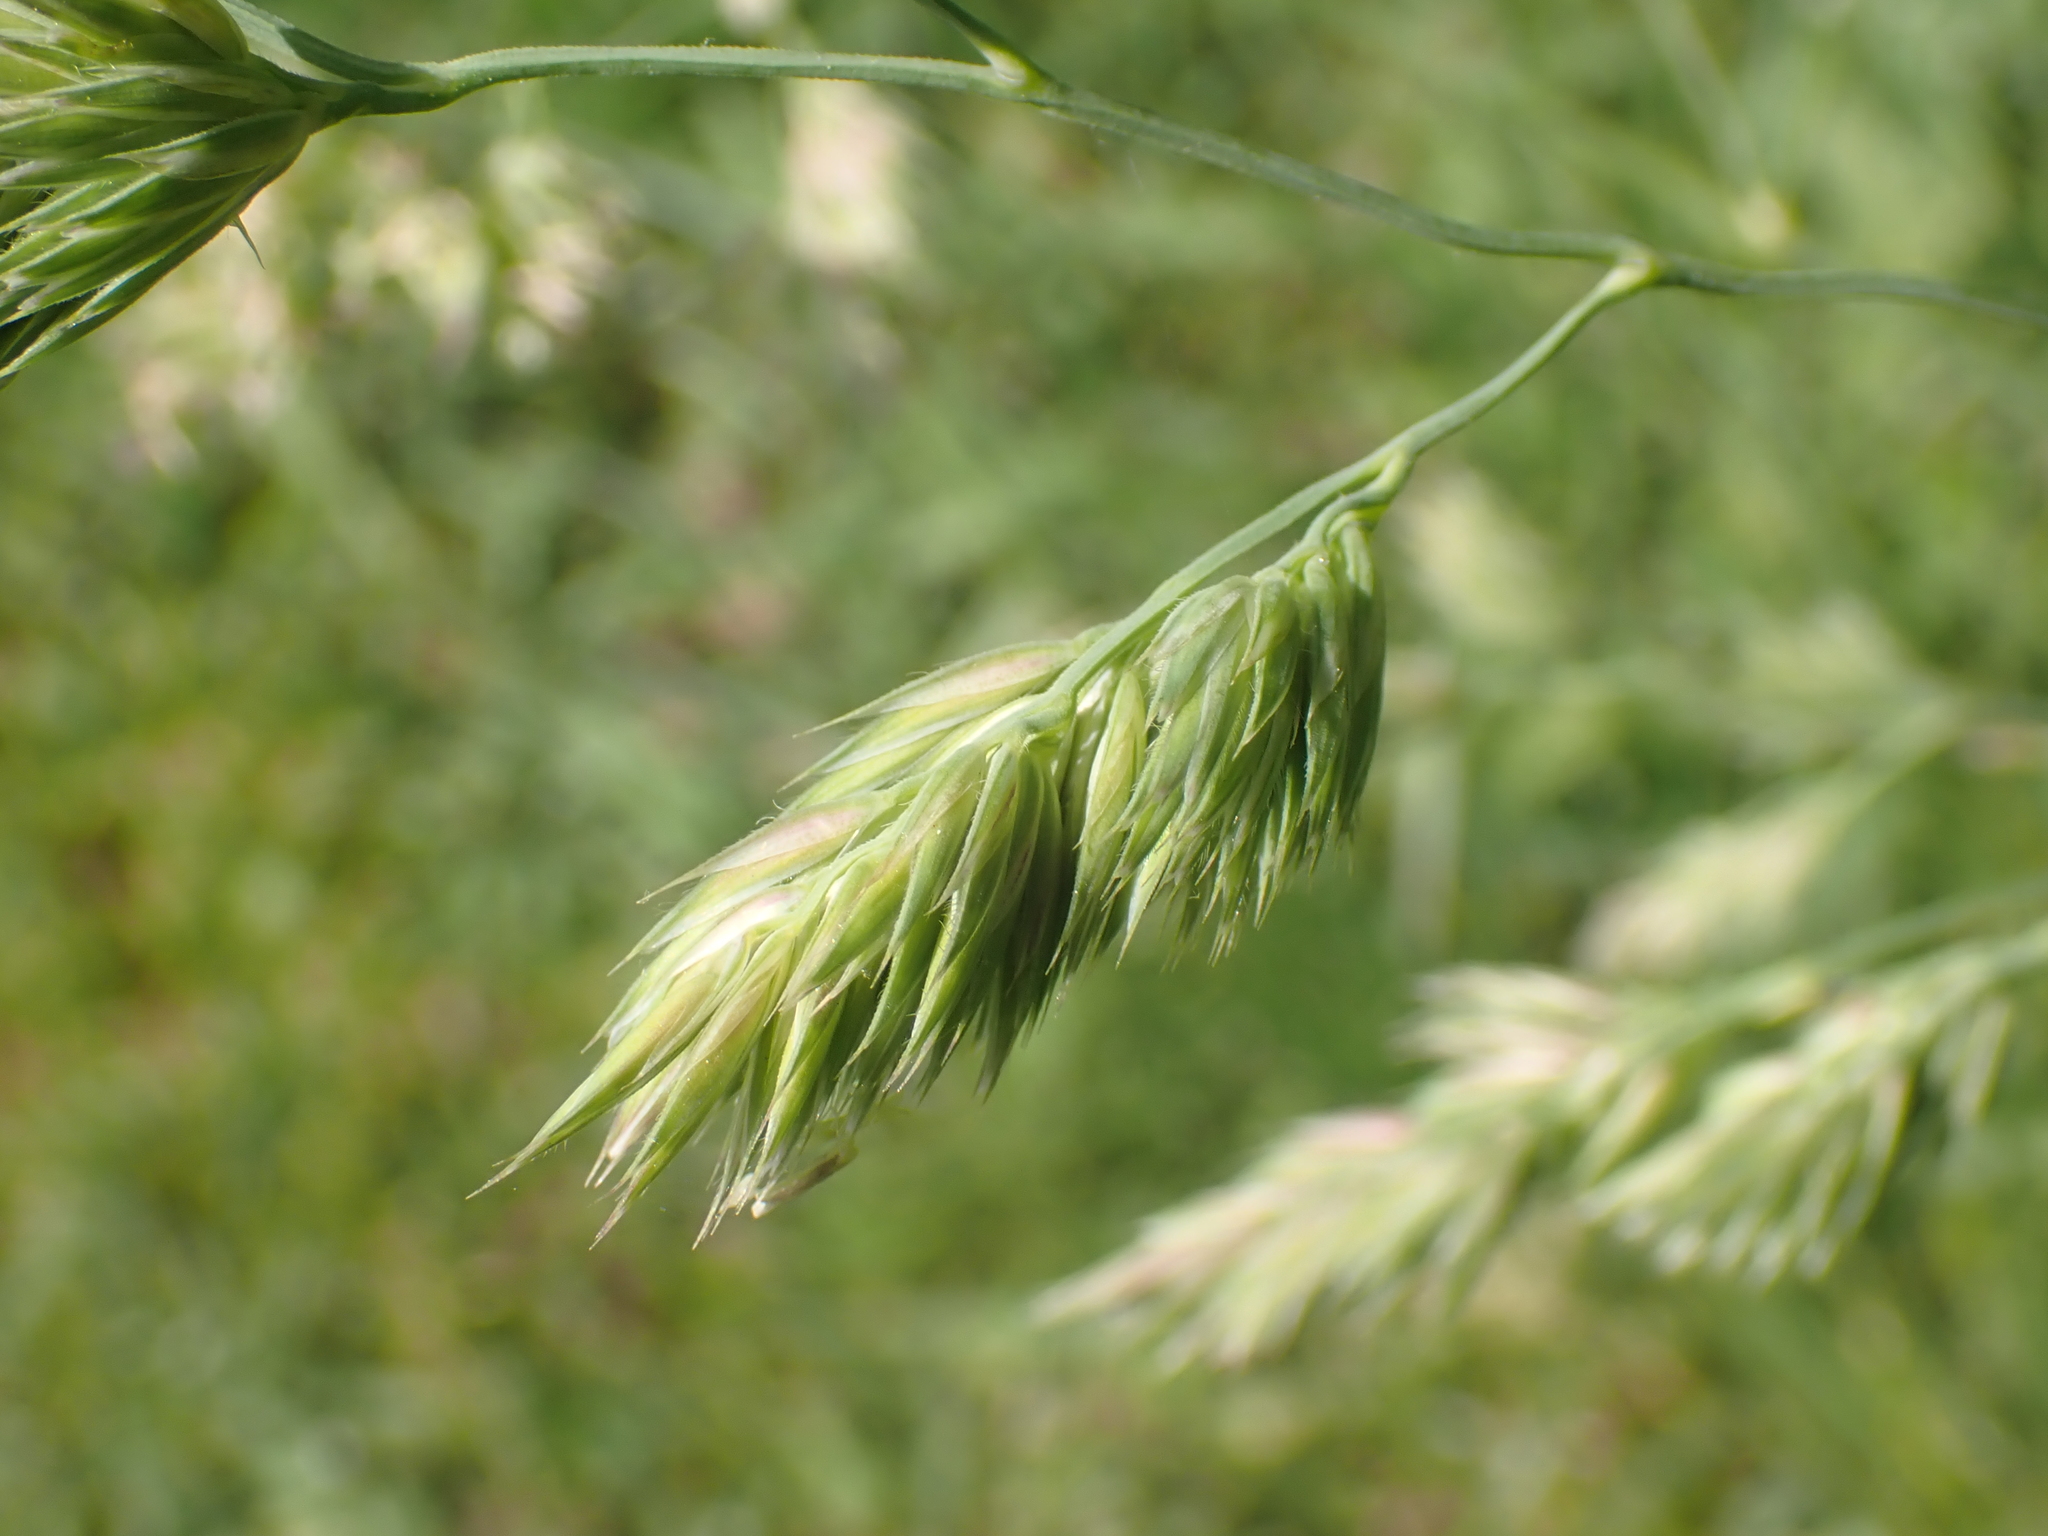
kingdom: Plantae
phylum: Tracheophyta
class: Liliopsida
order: Poales
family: Poaceae
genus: Dactylis
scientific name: Dactylis glomerata
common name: Orchardgrass
